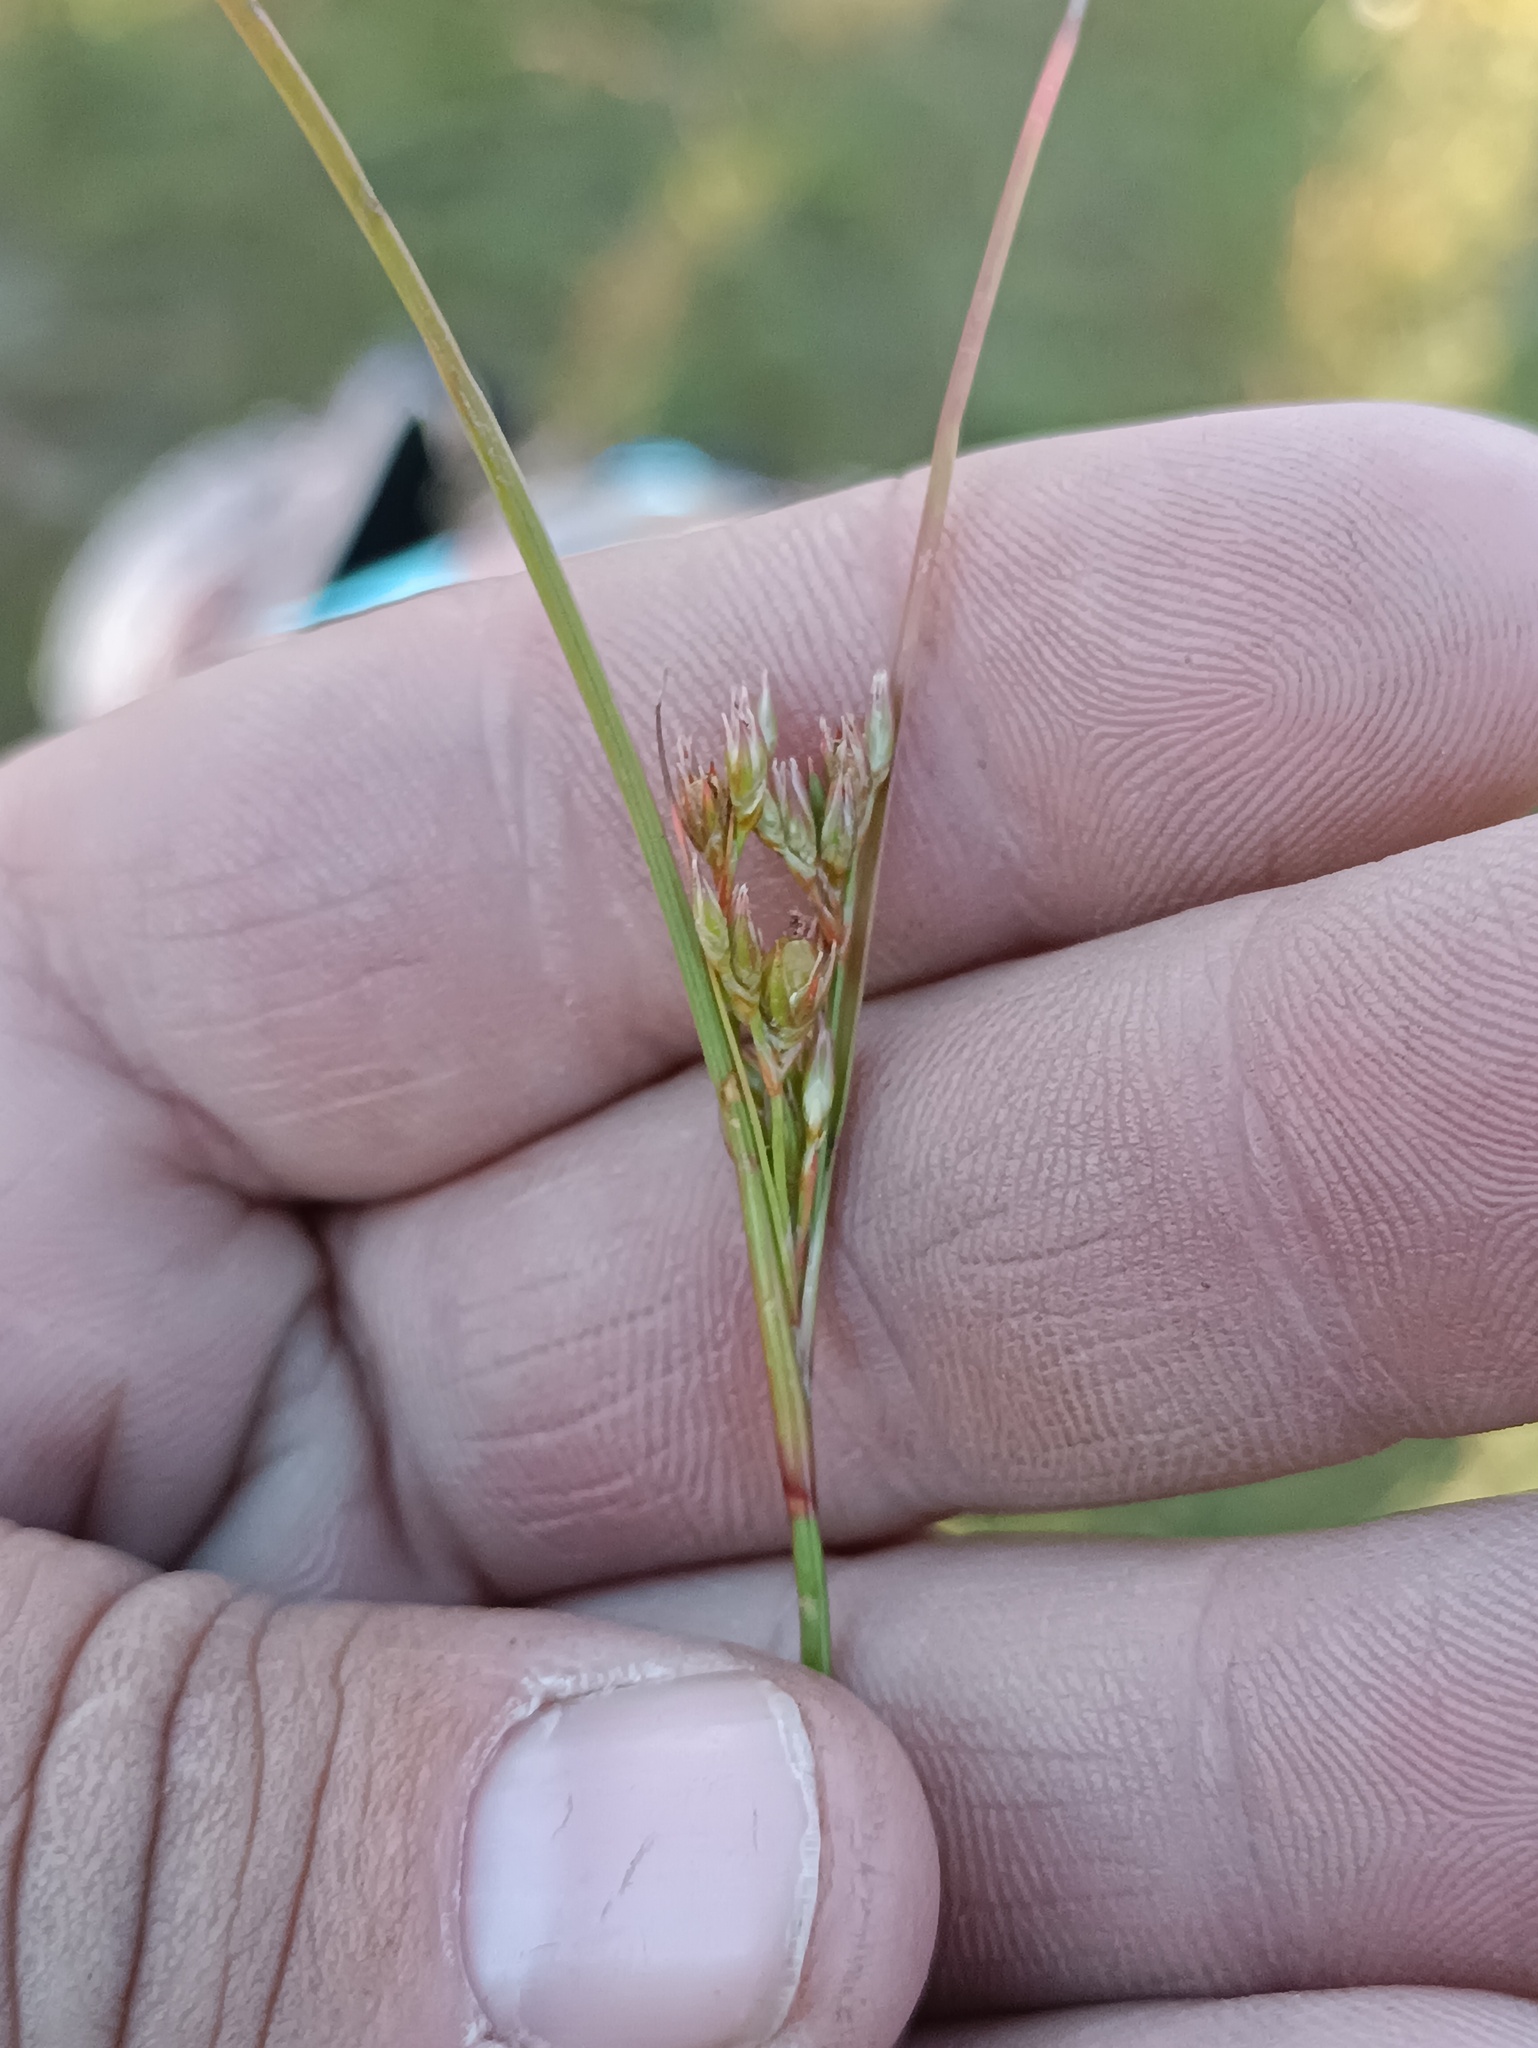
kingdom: Plantae
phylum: Tracheophyta
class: Liliopsida
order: Poales
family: Juncaceae
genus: Juncus
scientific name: Juncus tenuis
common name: Slender rush
